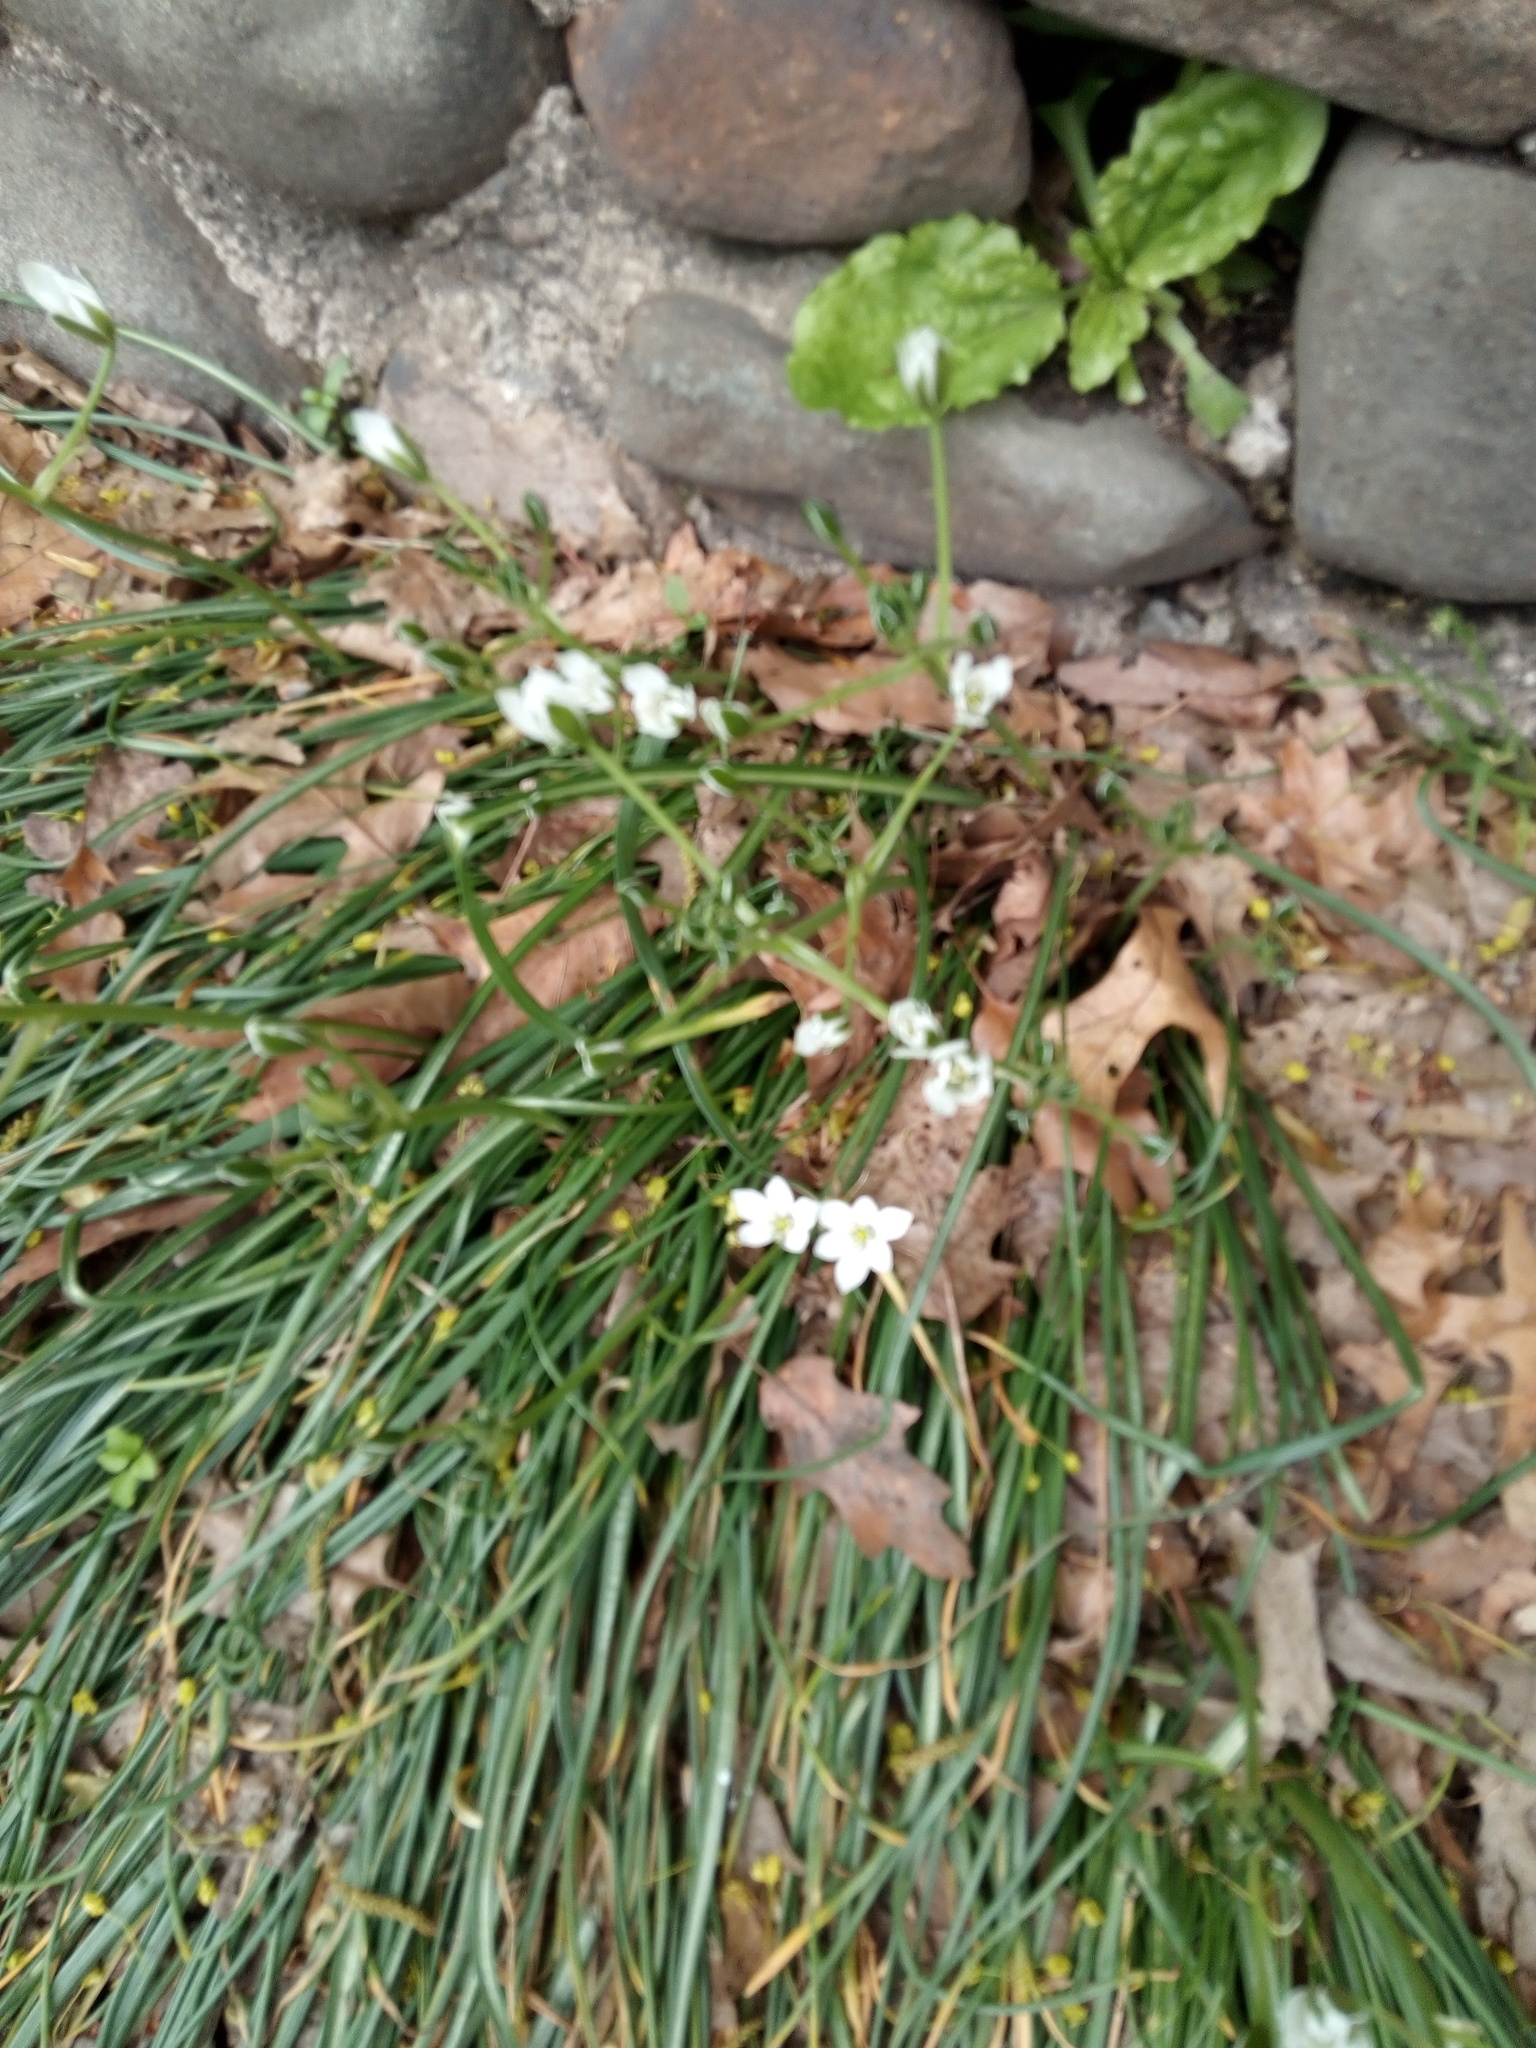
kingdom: Plantae
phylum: Tracheophyta
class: Liliopsida
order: Asparagales
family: Asparagaceae
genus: Ornithogalum
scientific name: Ornithogalum umbellatum
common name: Garden star-of-bethlehem
